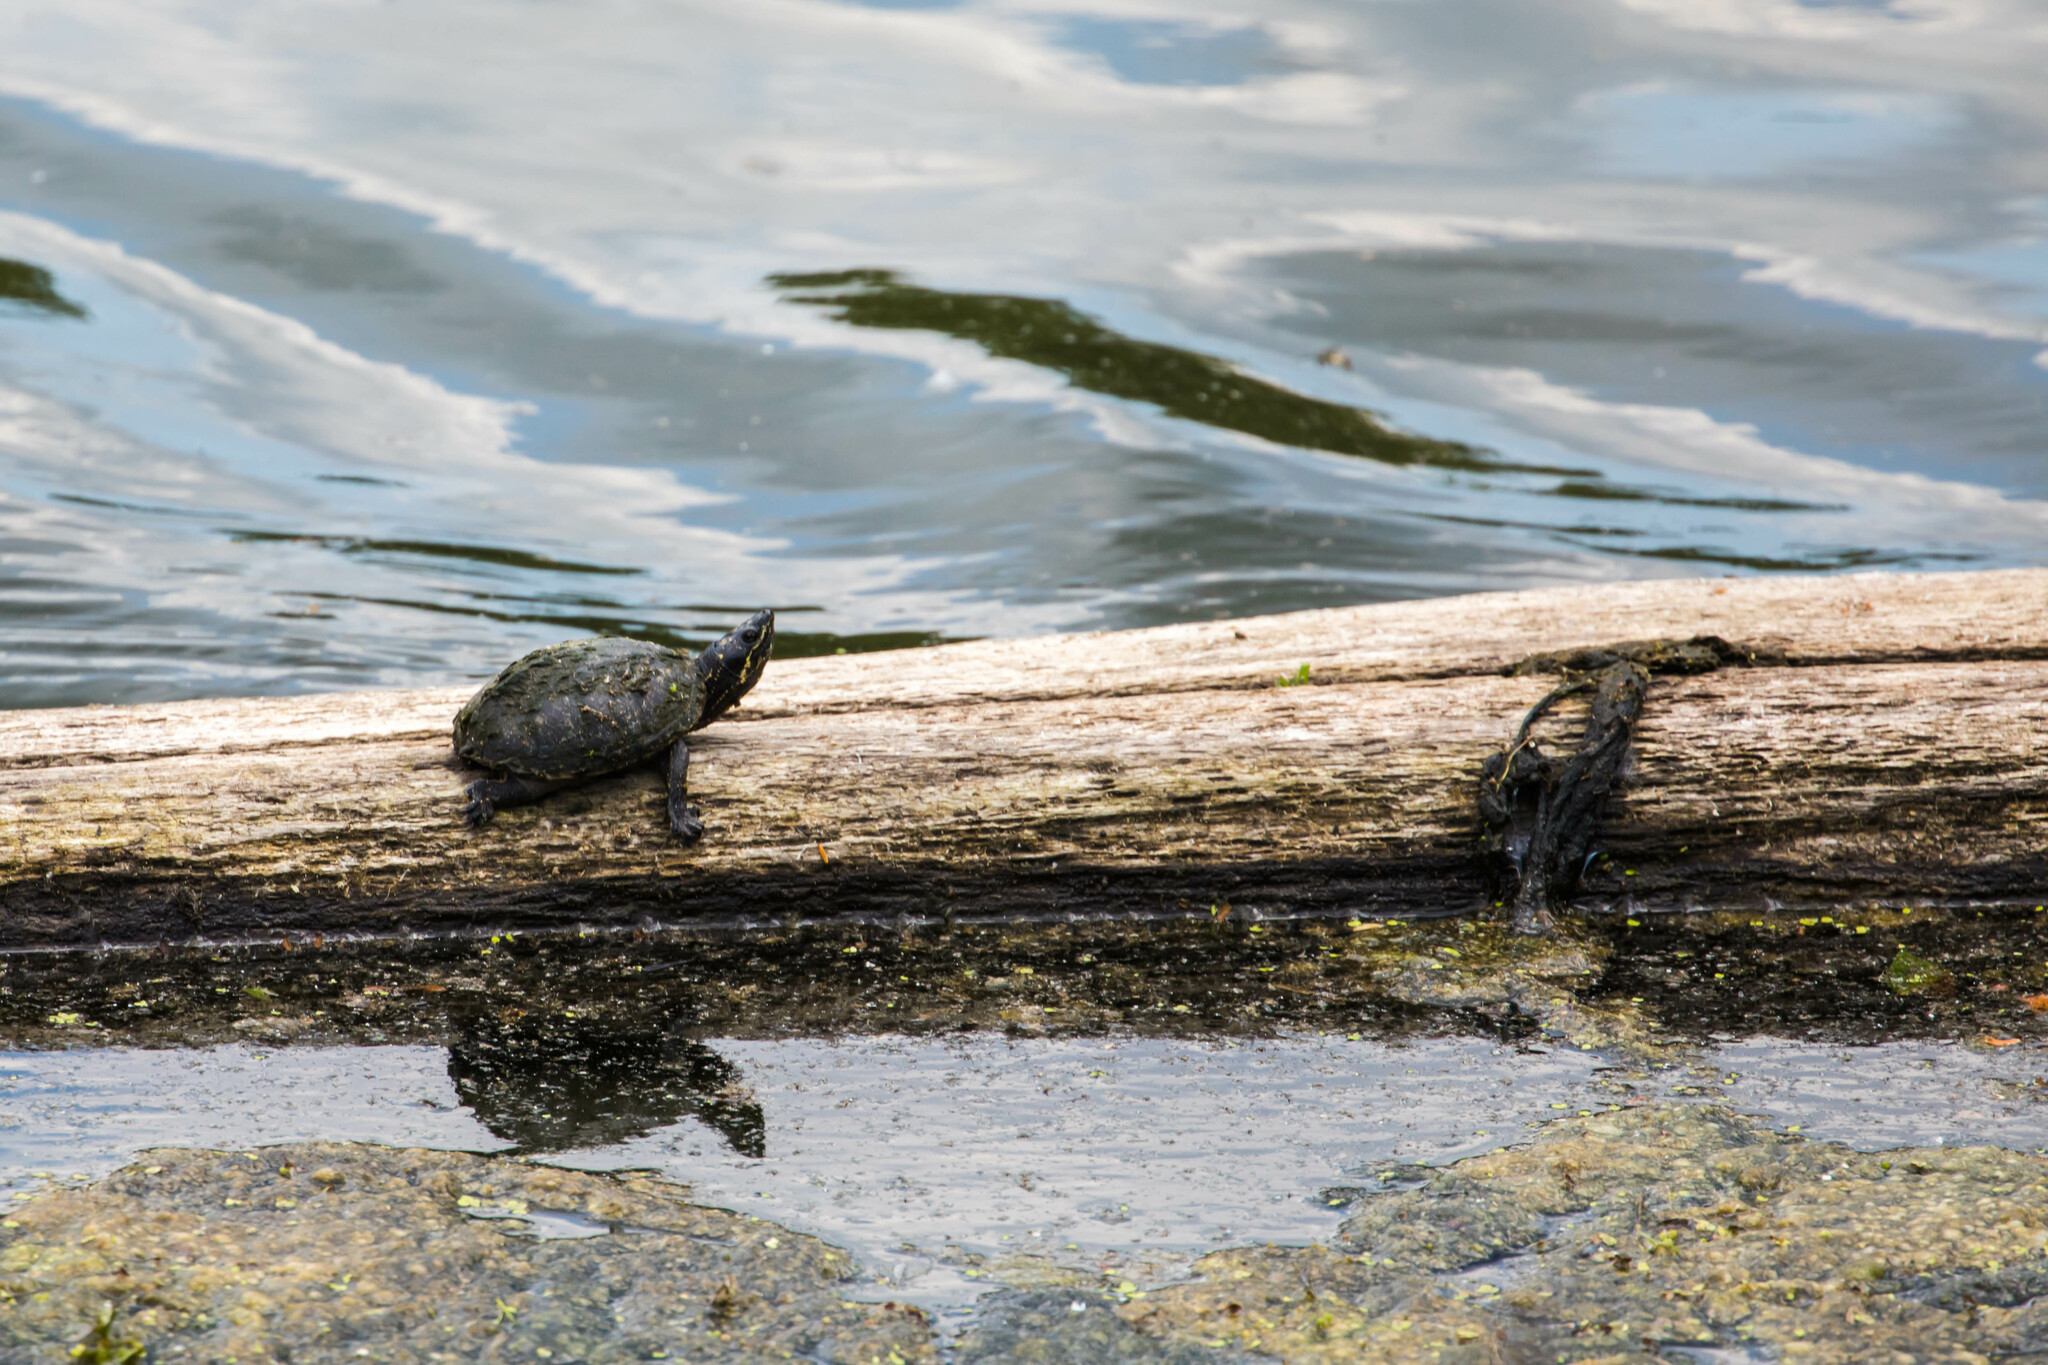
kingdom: Animalia
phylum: Chordata
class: Testudines
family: Kinosternidae
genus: Sternotherus
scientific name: Sternotherus odoratus
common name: Common musk turtle
